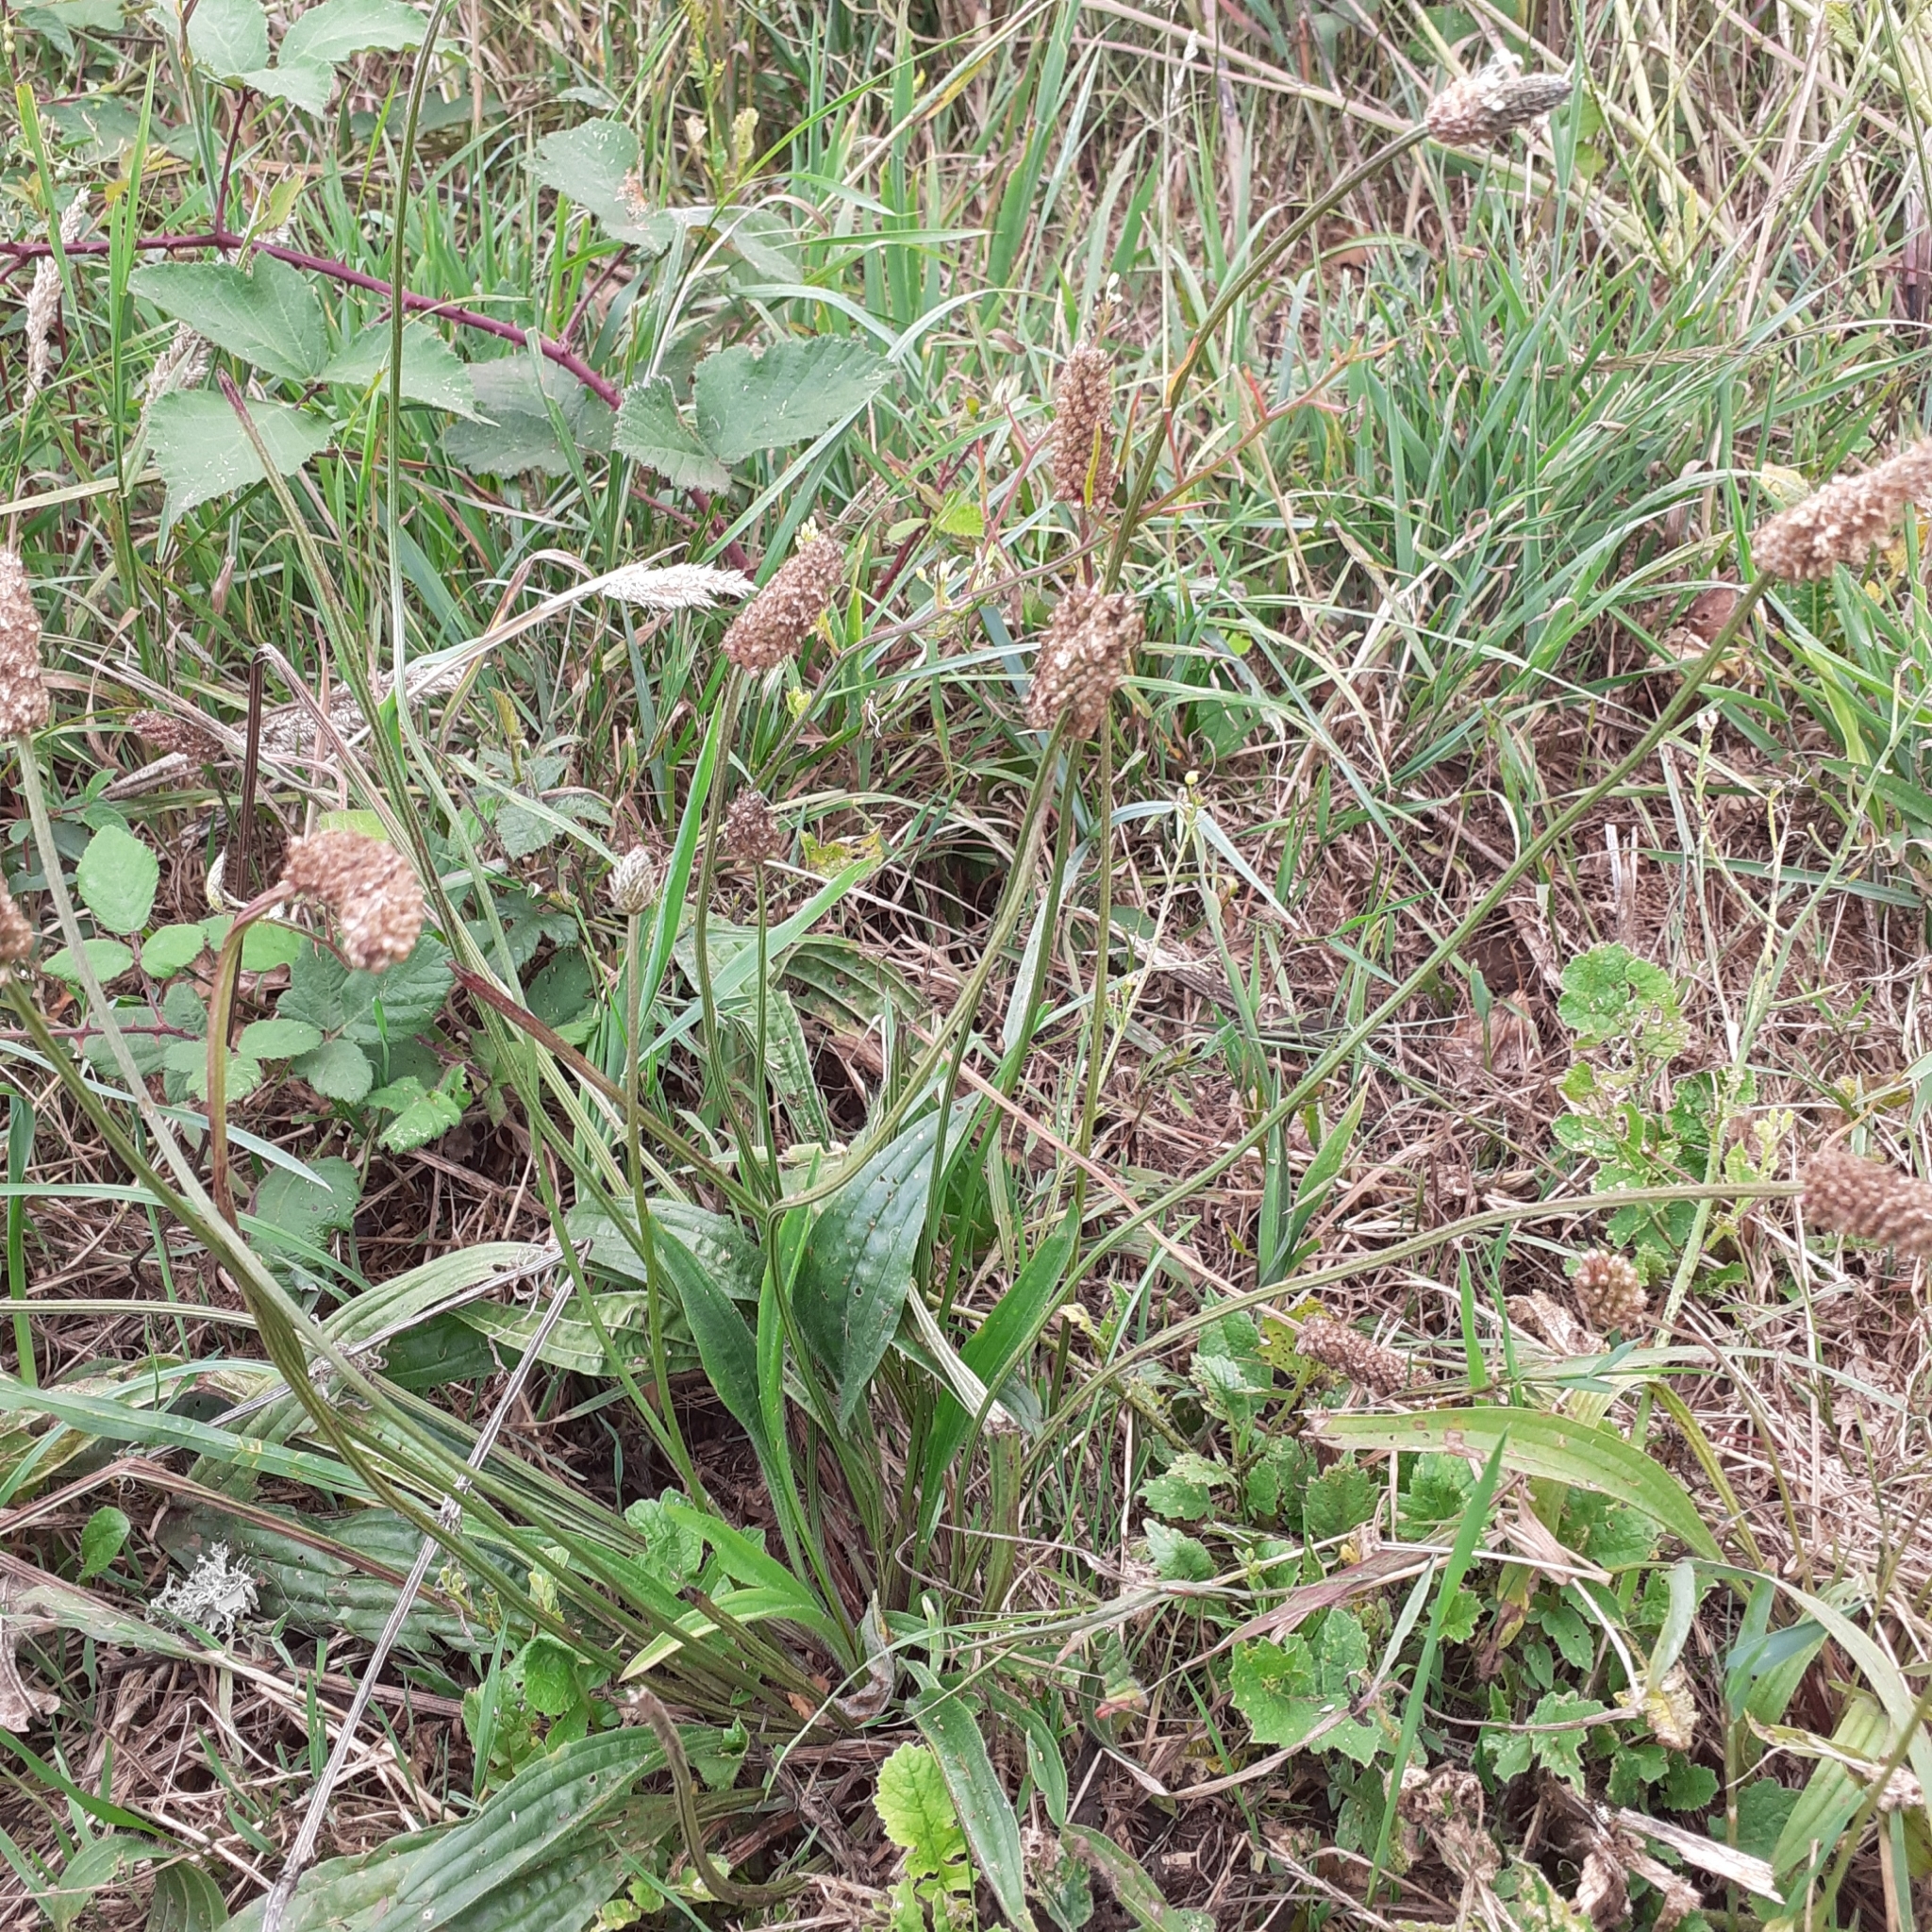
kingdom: Plantae
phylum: Tracheophyta
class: Magnoliopsida
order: Lamiales
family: Plantaginaceae
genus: Plantago
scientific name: Plantago lanceolata
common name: Ribwort plantain
